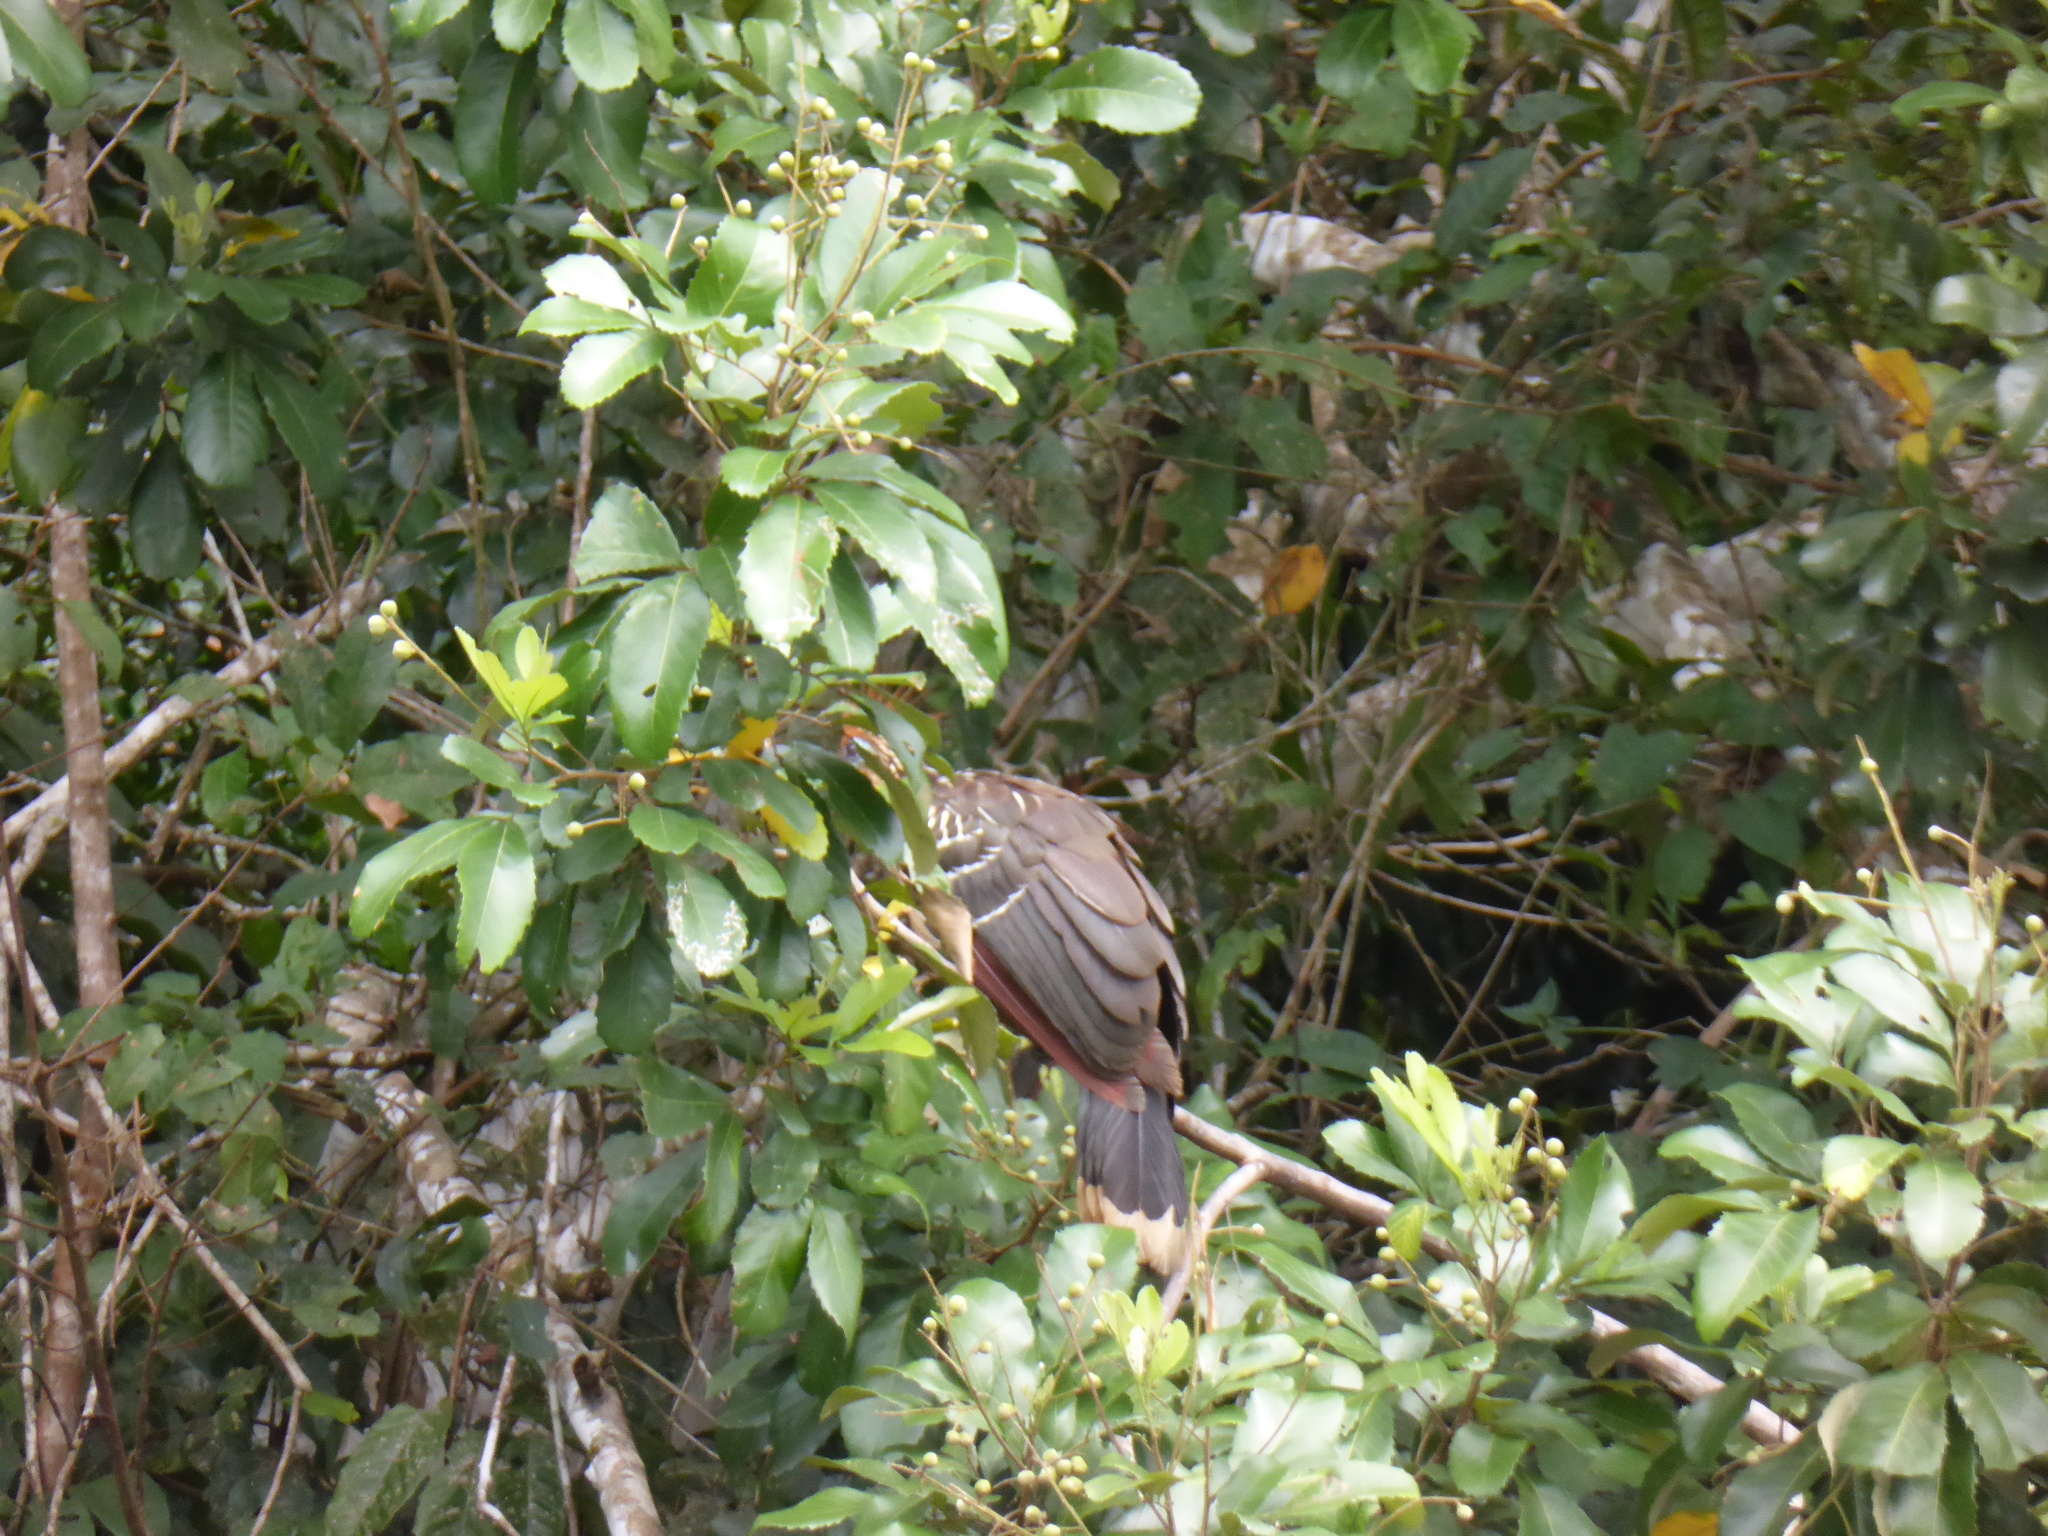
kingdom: Animalia
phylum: Chordata
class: Aves
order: Opisthocomiformes
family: Opisthocomidae
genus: Opisthocomus
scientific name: Opisthocomus hoazin
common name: Hoatzin
